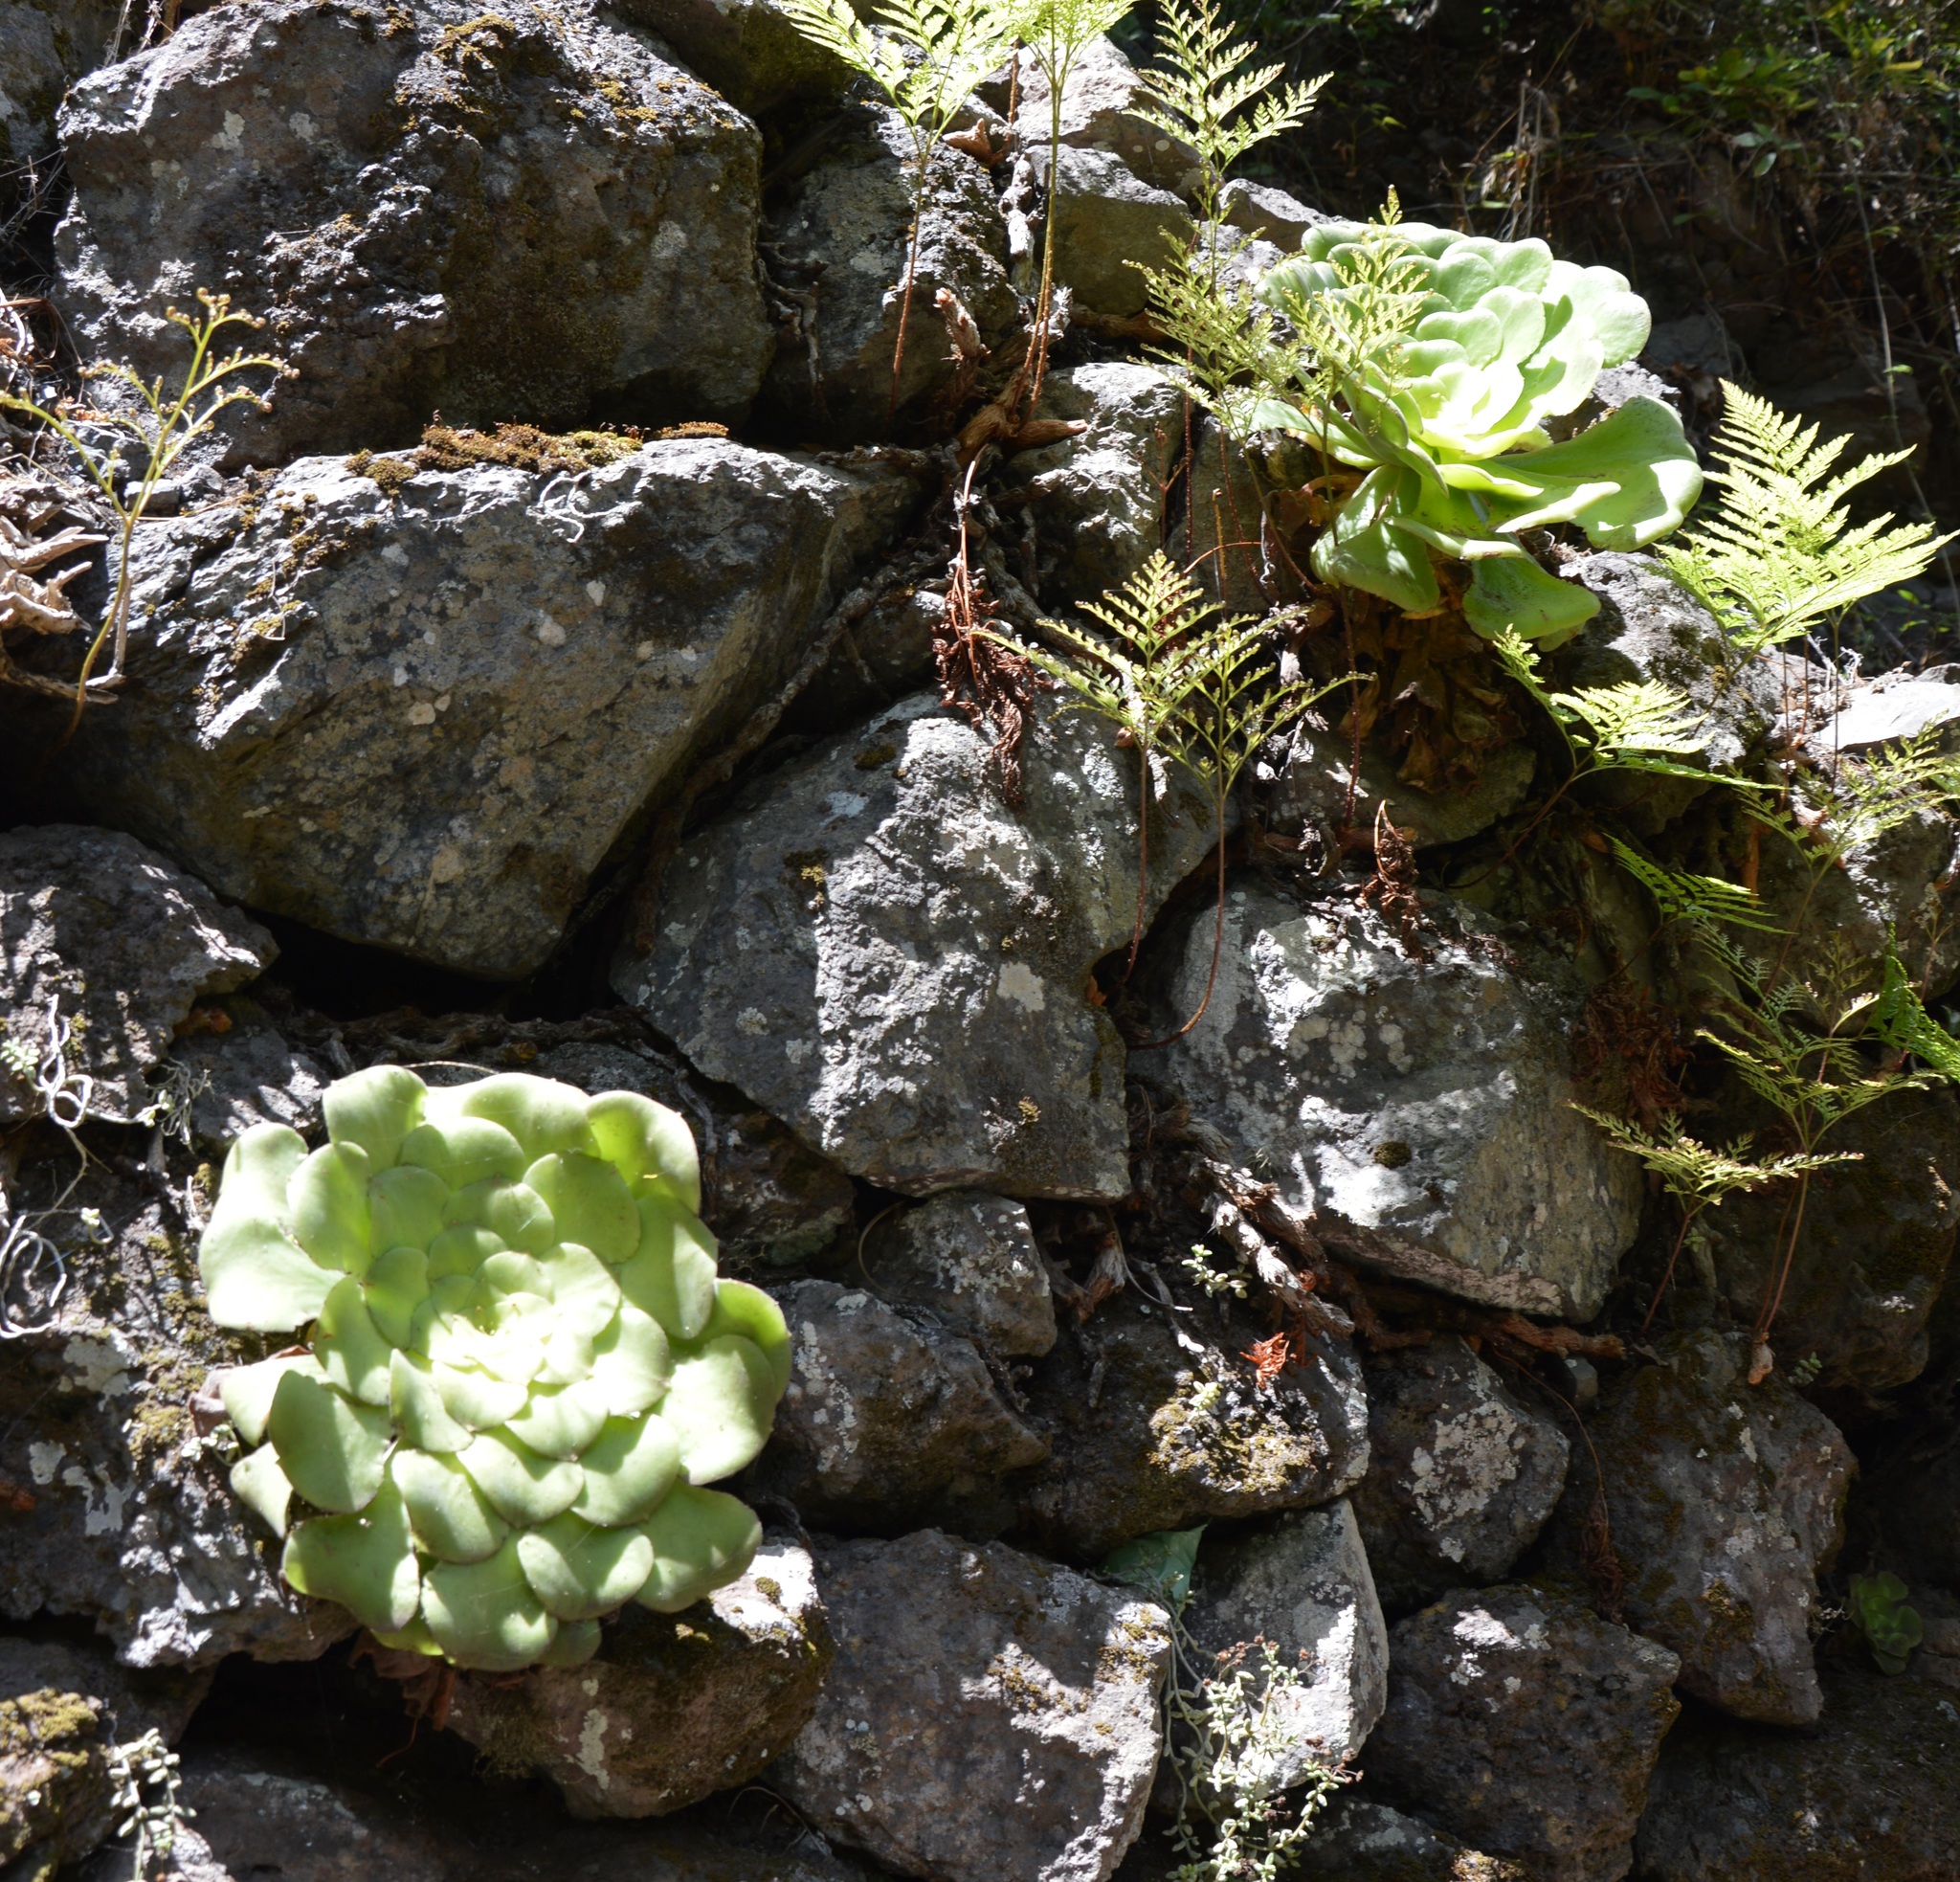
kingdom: Plantae
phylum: Tracheophyta
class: Magnoliopsida
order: Saxifragales
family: Crassulaceae
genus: Aeonium
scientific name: Aeonium canariense
